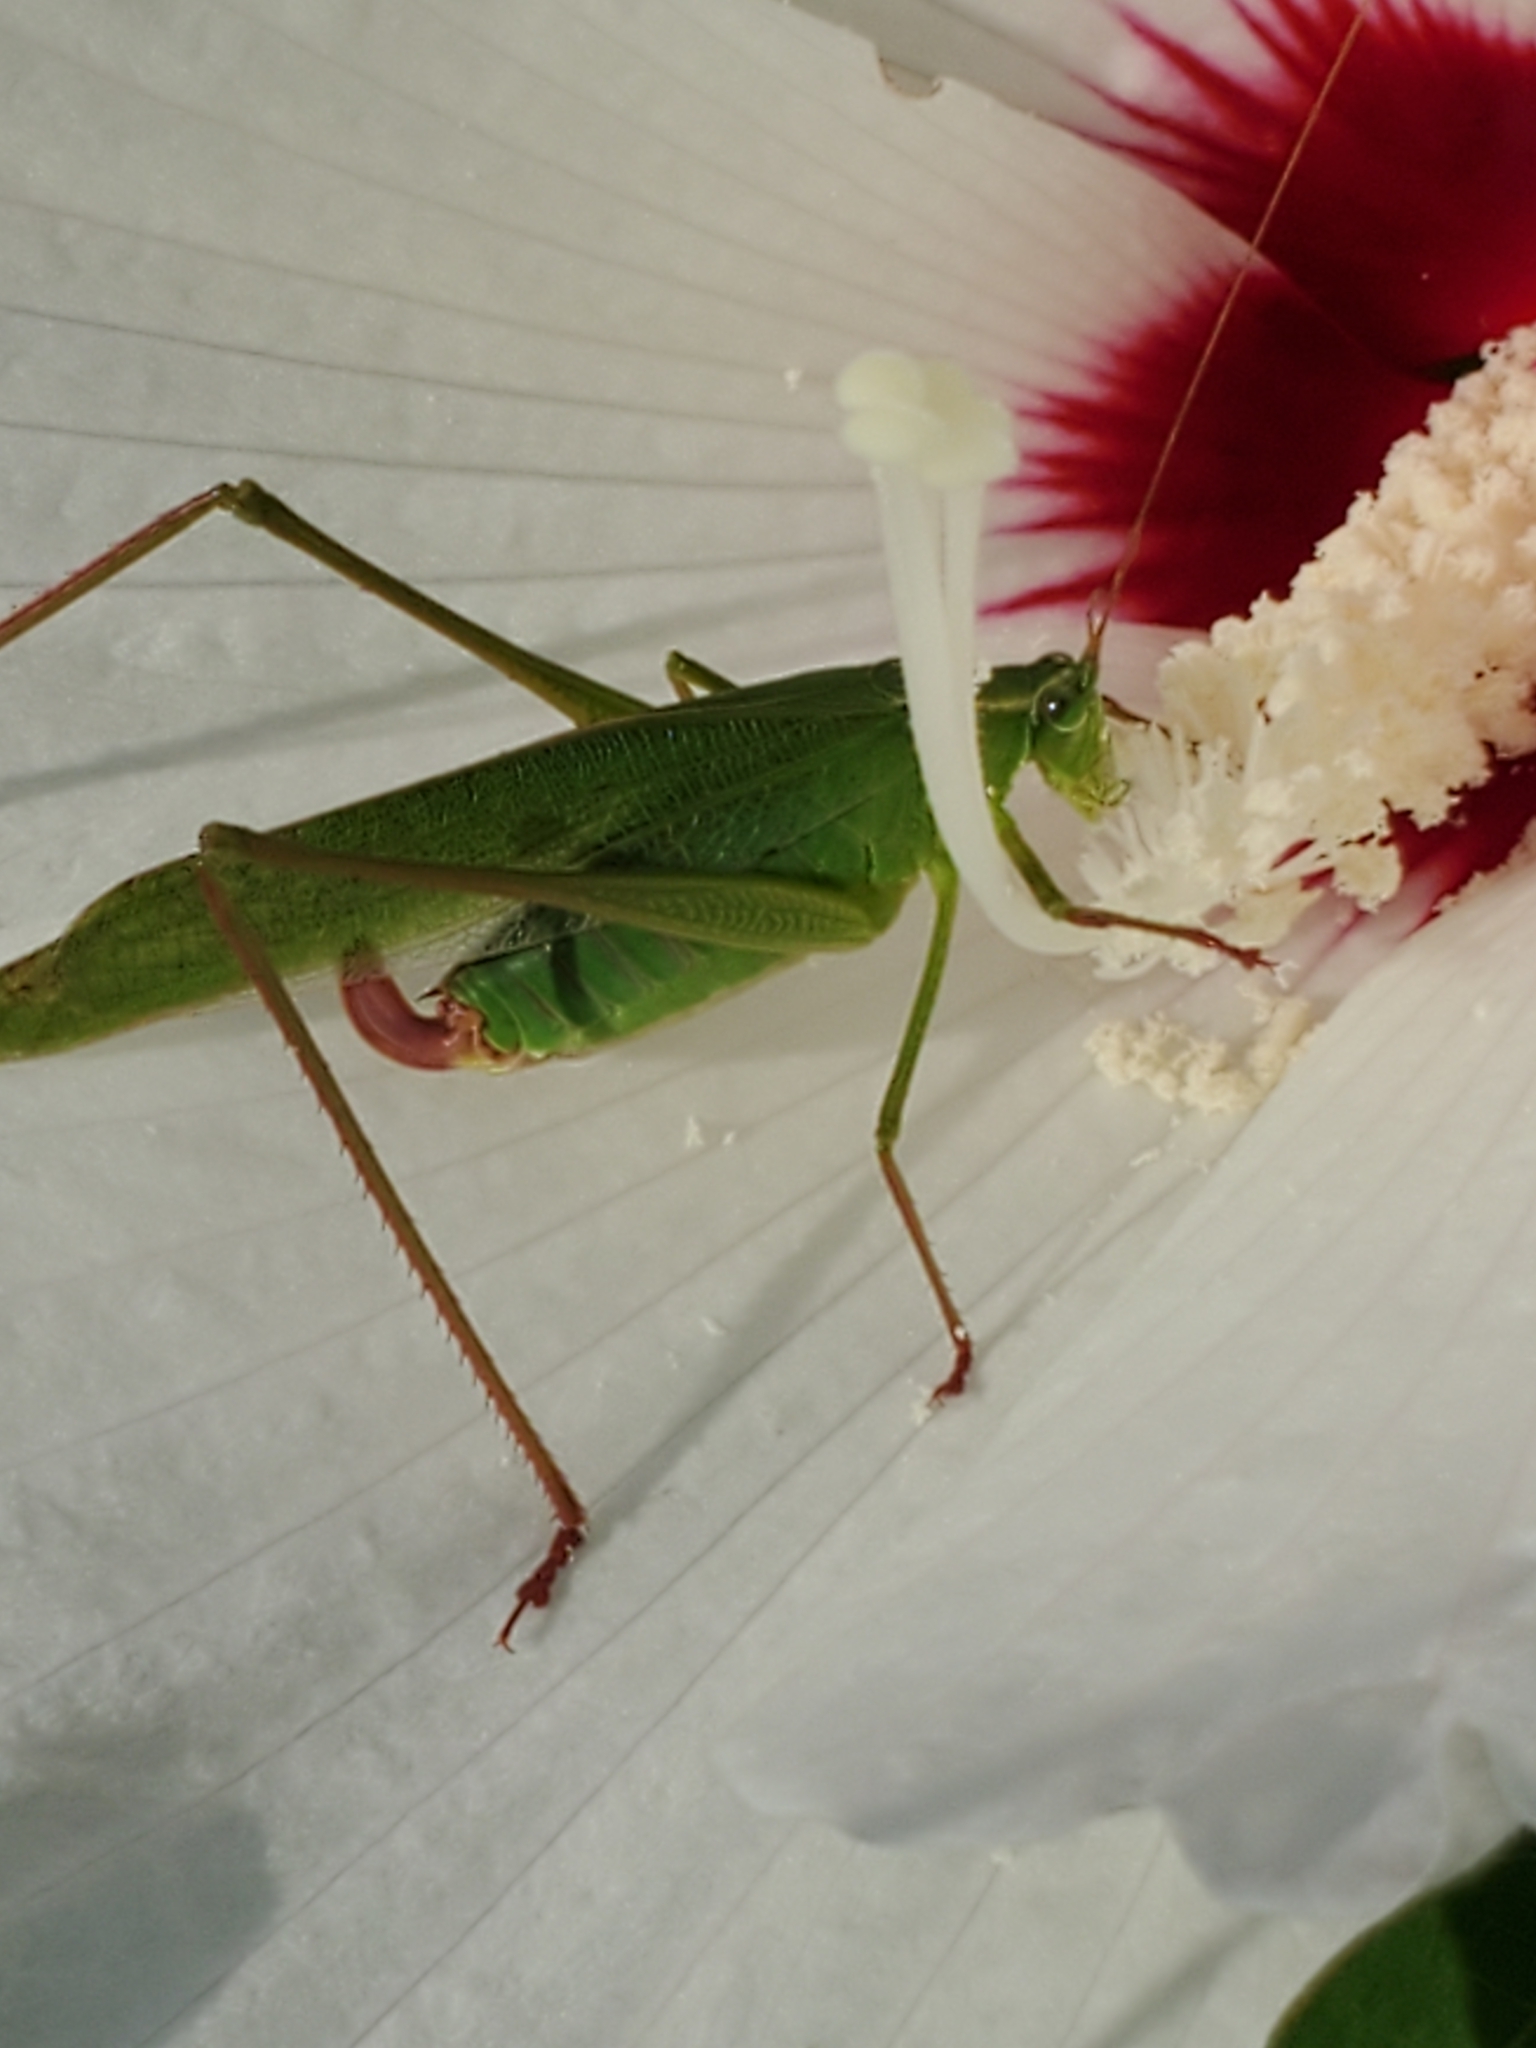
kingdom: Animalia
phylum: Arthropoda
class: Insecta
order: Orthoptera
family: Tettigoniidae
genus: Scudderia
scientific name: Scudderia furcata
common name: Fork-tailed bush katydid
